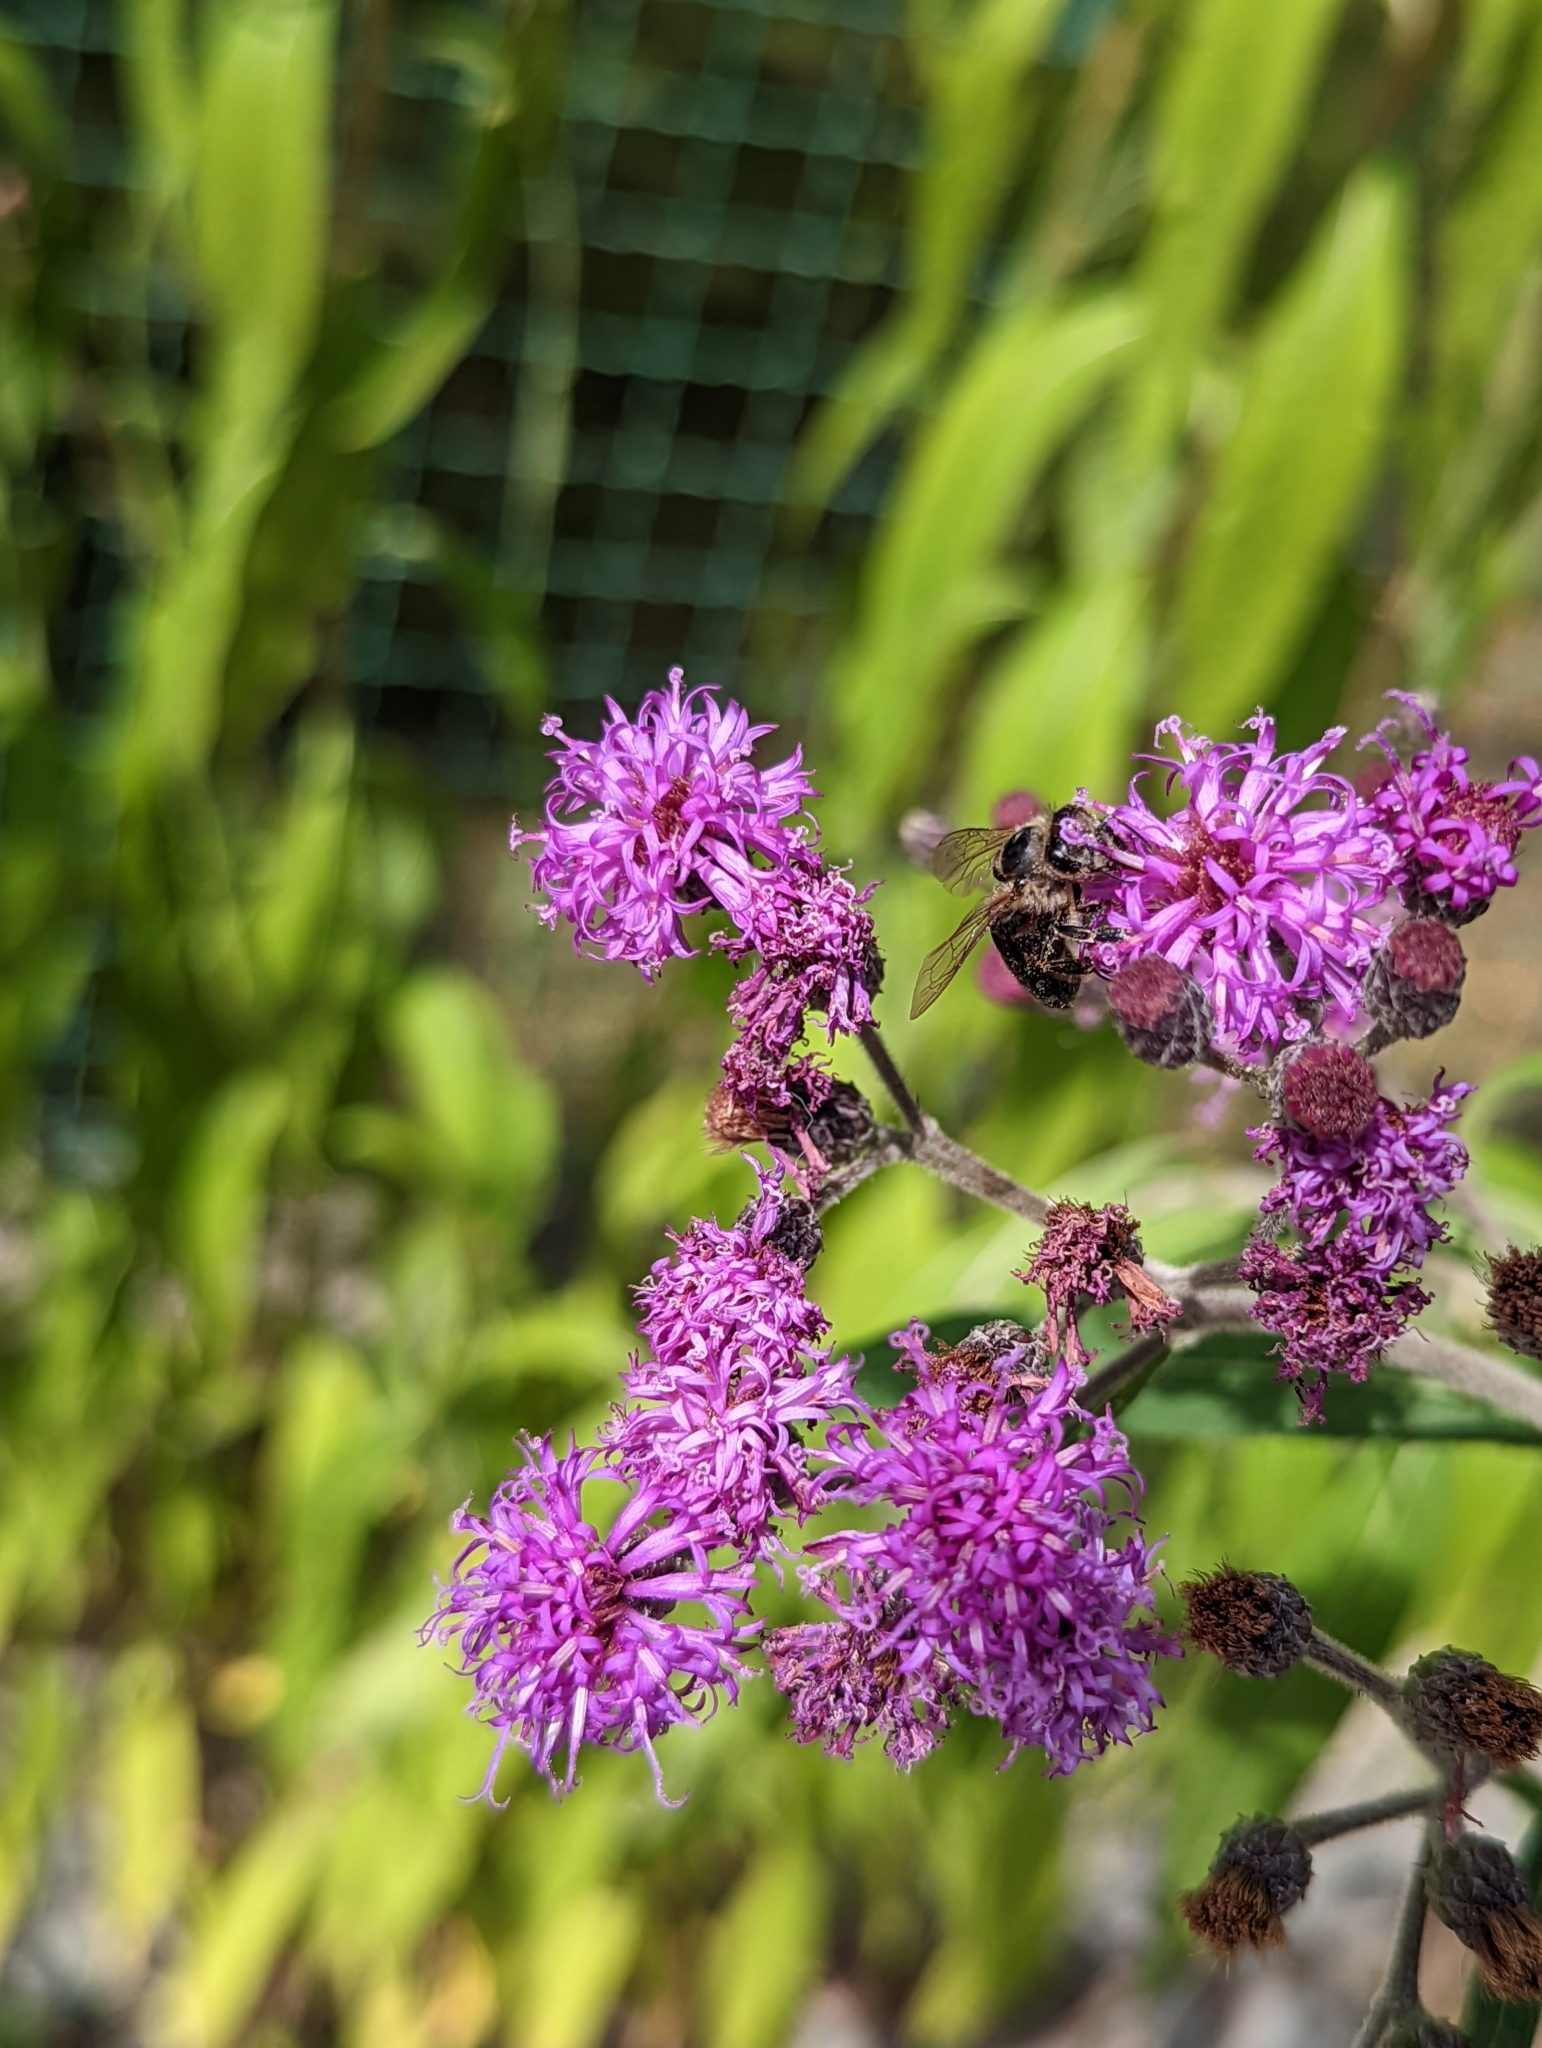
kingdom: Animalia
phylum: Arthropoda
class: Insecta
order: Hymenoptera
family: Apidae
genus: Apis
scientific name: Apis mellifera
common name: Honey bee
